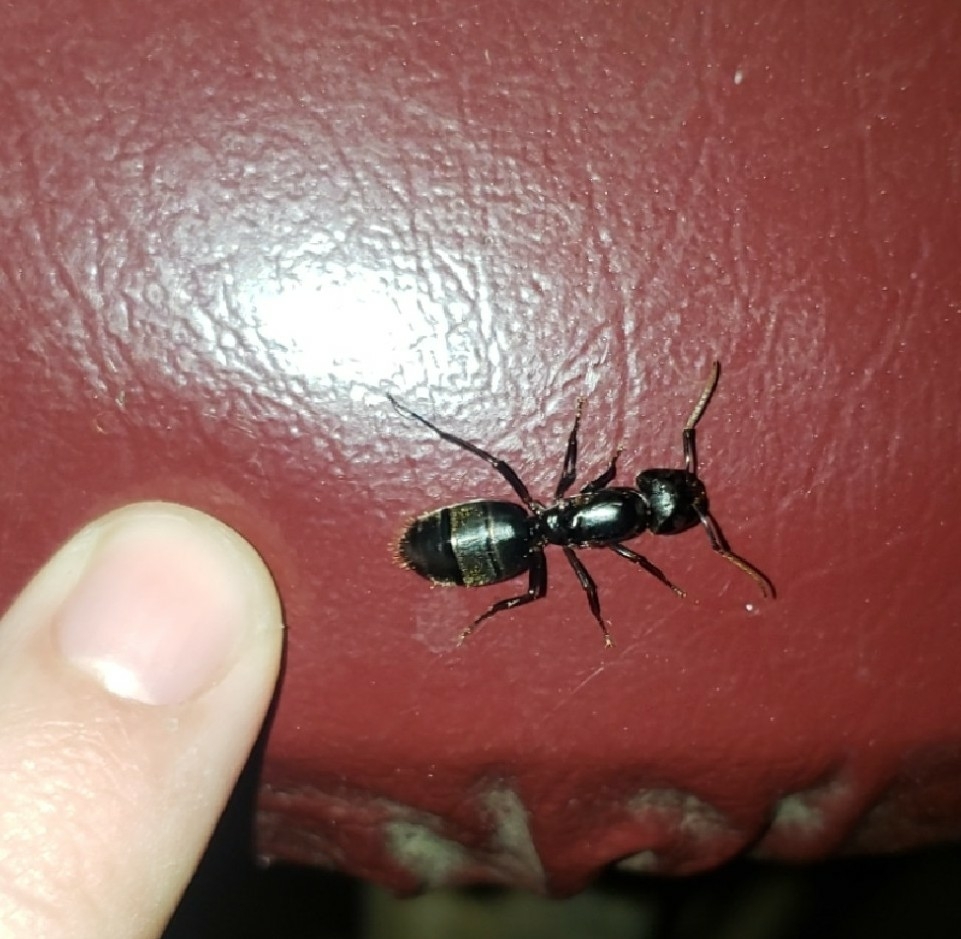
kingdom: Animalia
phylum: Arthropoda
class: Insecta
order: Hymenoptera
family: Formicidae
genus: Camponotus
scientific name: Camponotus pennsylvanicus
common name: Black carpenter ant
